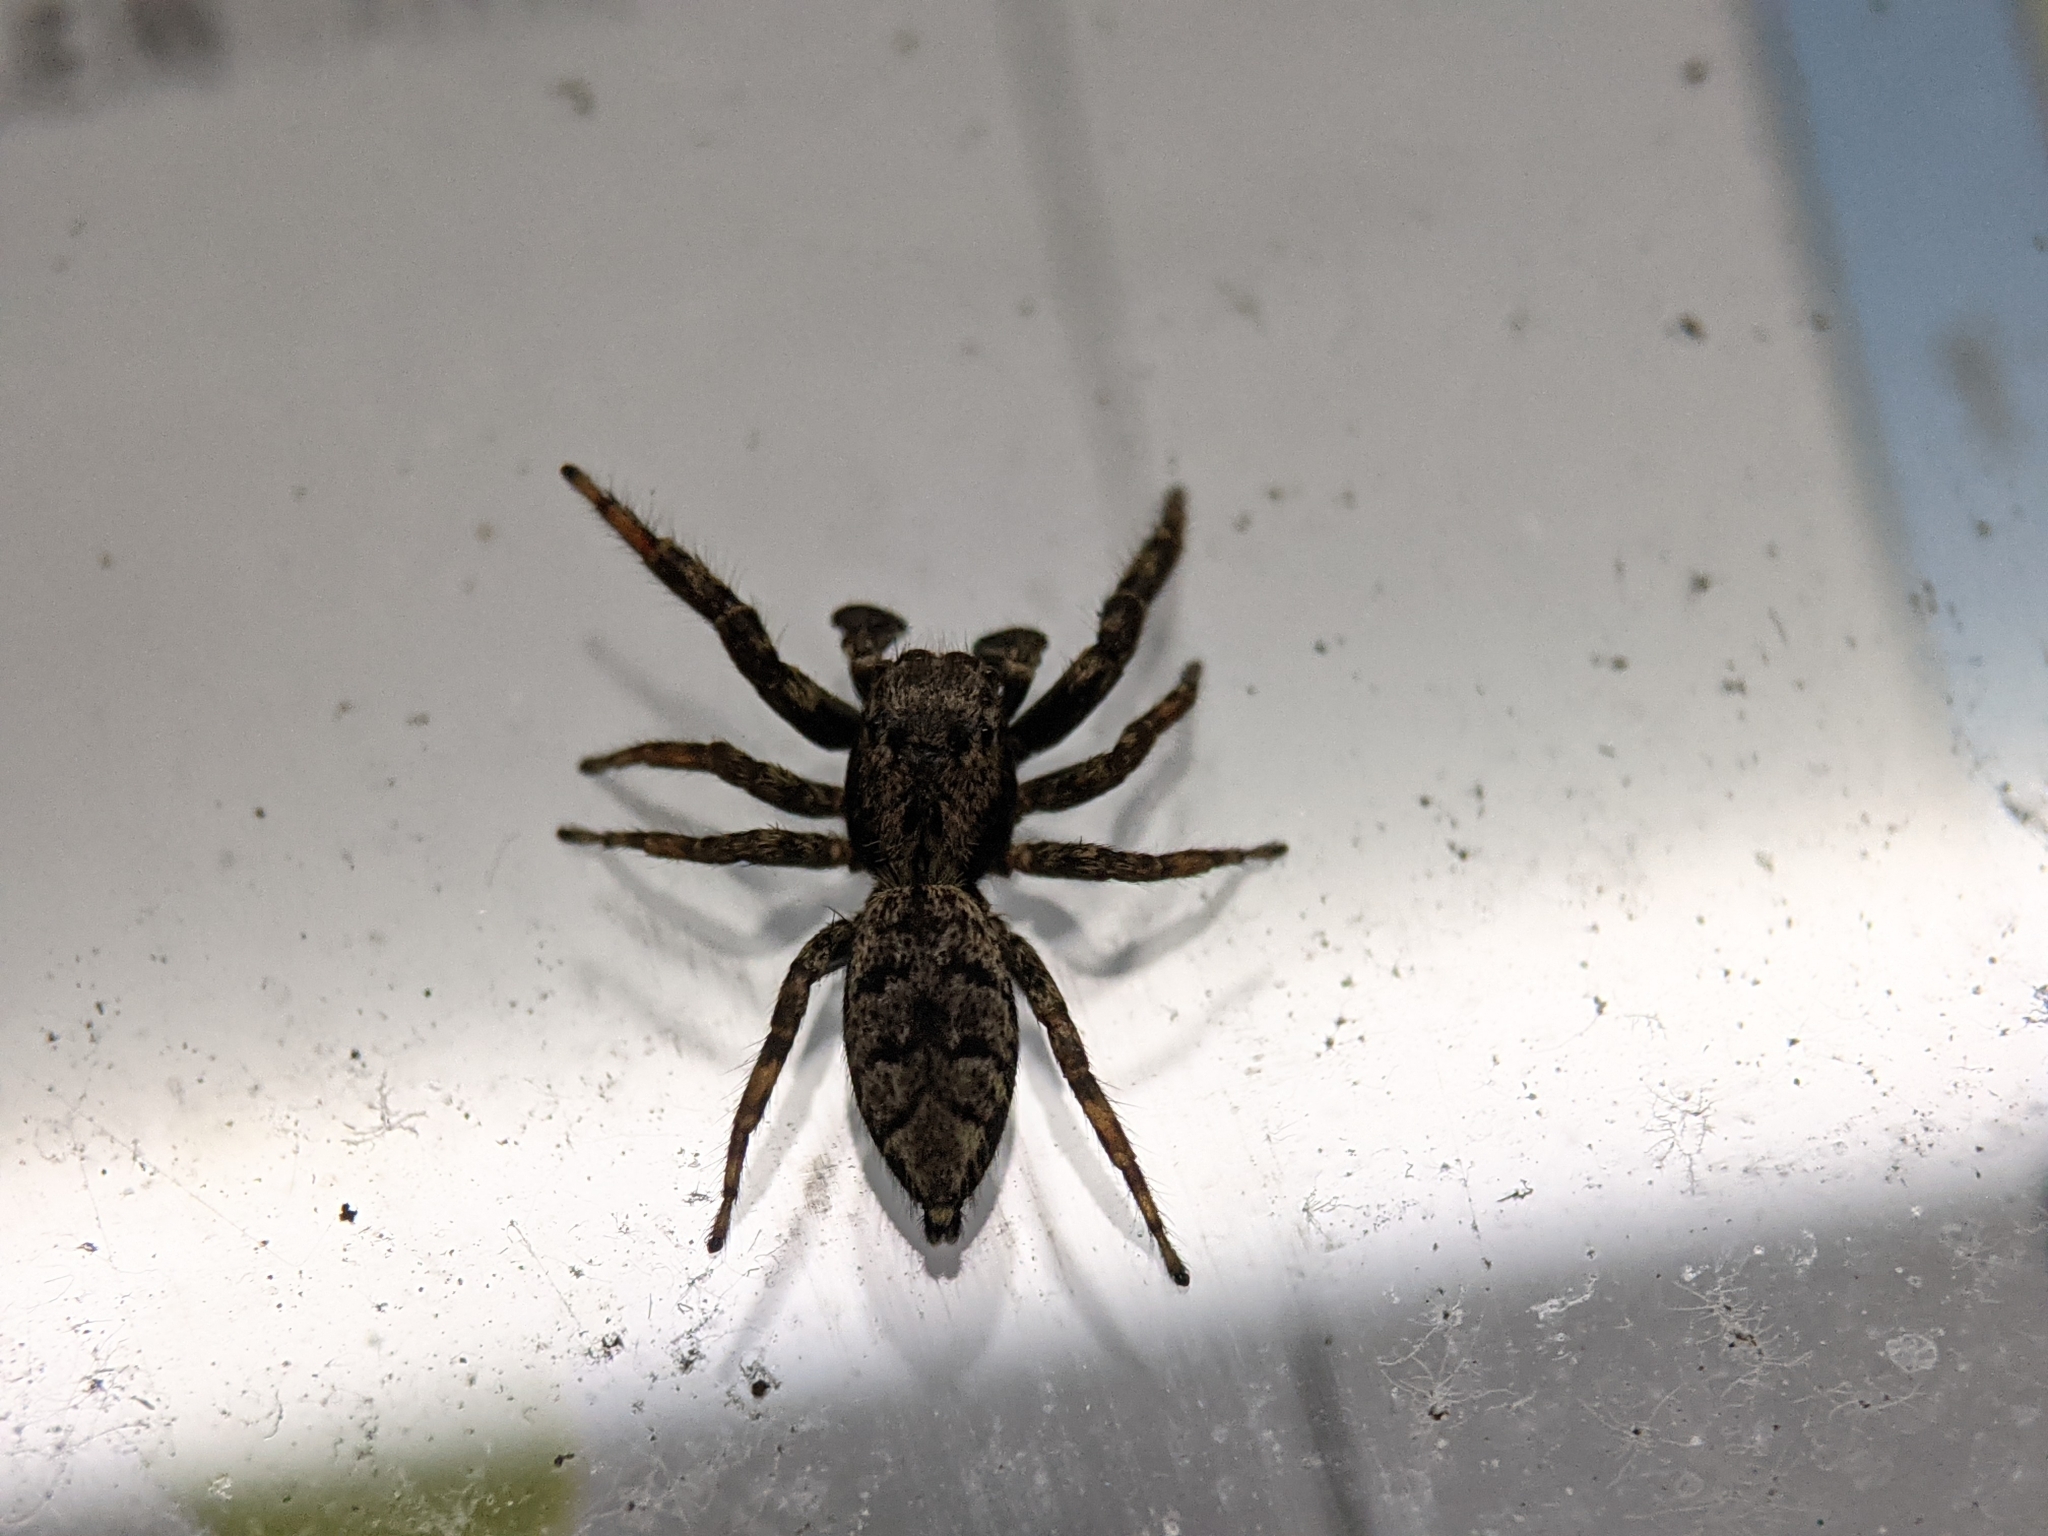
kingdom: Animalia
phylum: Arthropoda
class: Arachnida
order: Araneae
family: Salticidae
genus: Marpissa
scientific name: Marpissa muscosa
